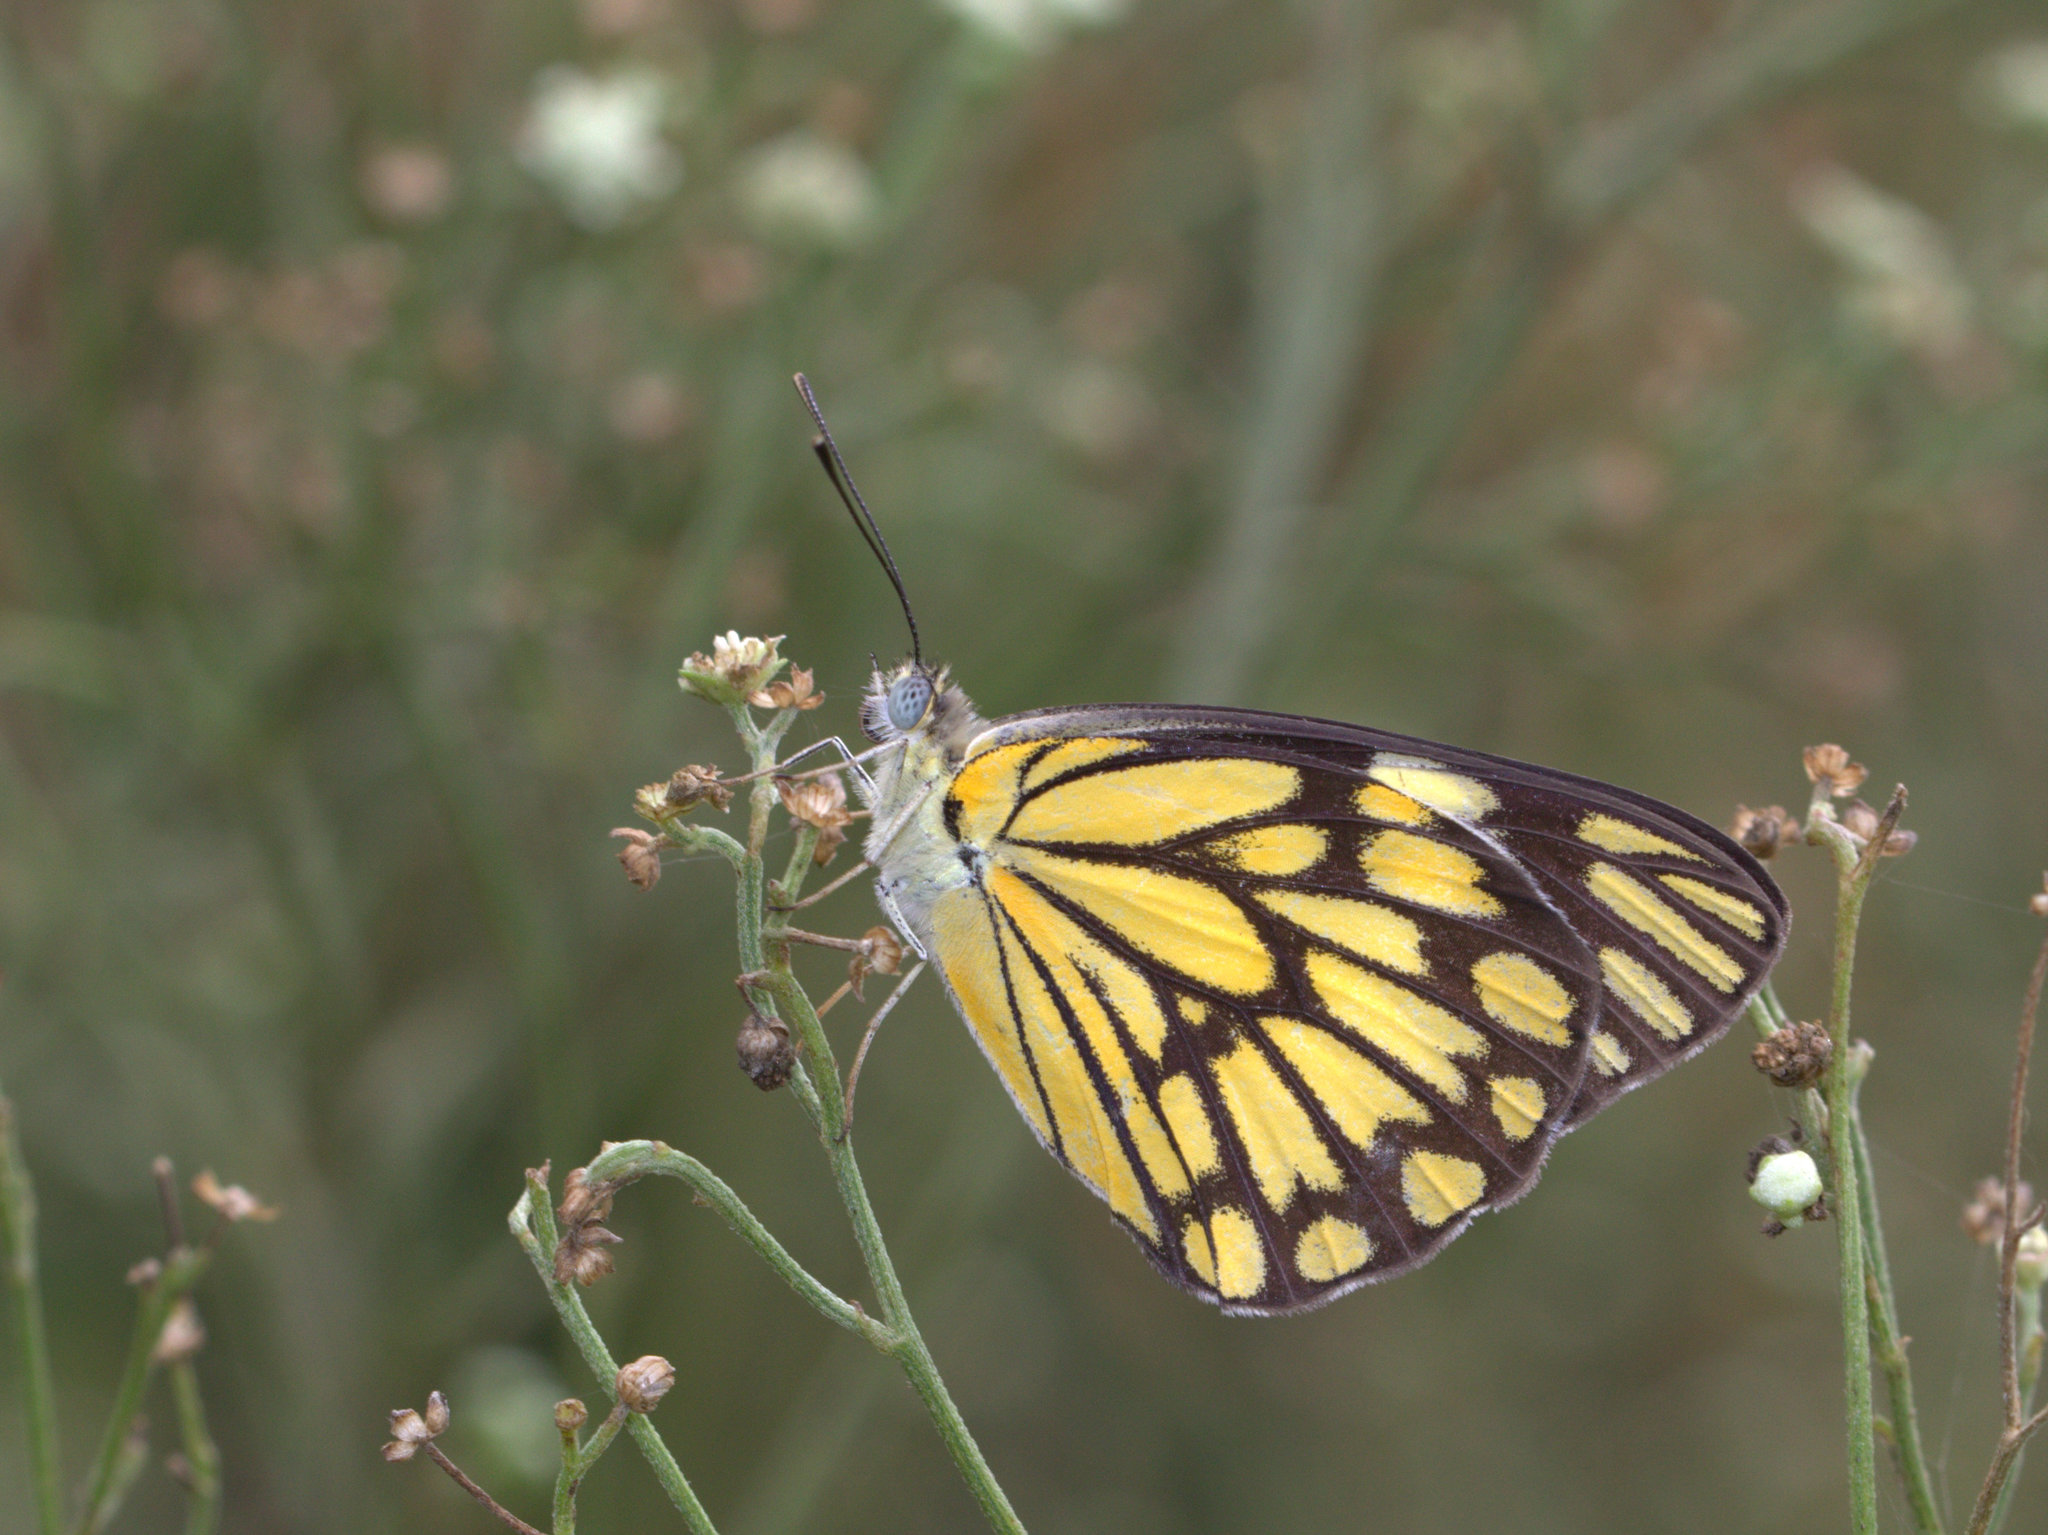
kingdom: Animalia
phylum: Arthropoda
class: Insecta
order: Lepidoptera
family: Pieridae
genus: Belenois
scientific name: Belenois aurota
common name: Brown-veined white
